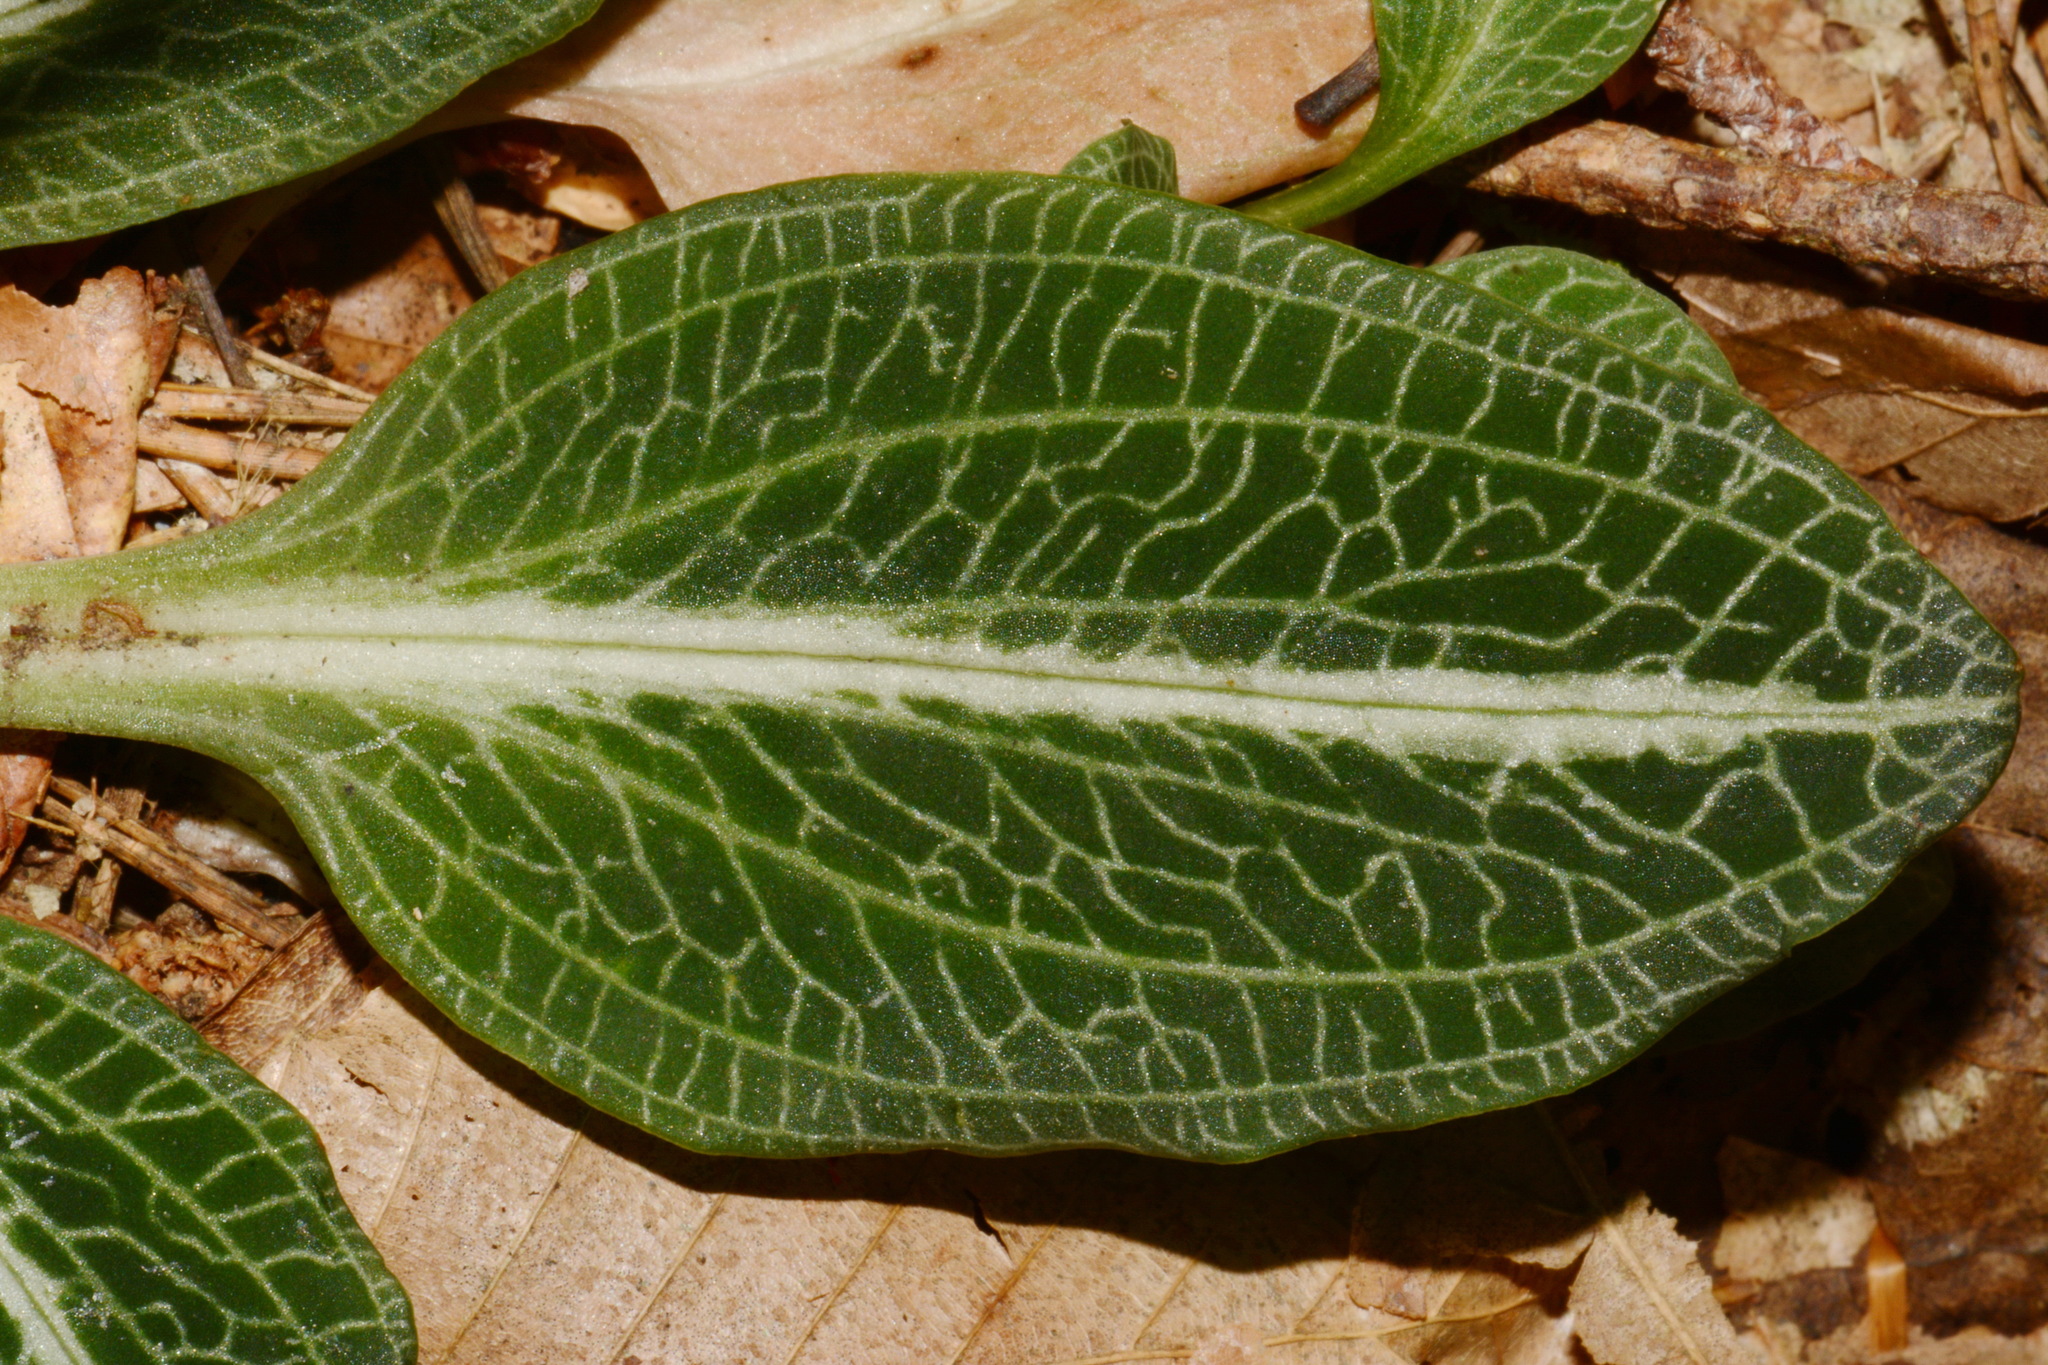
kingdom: Plantae
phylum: Tracheophyta
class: Liliopsida
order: Asparagales
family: Orchidaceae
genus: Goodyera
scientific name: Goodyera pubescens
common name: Downy rattlesnake-plantain
